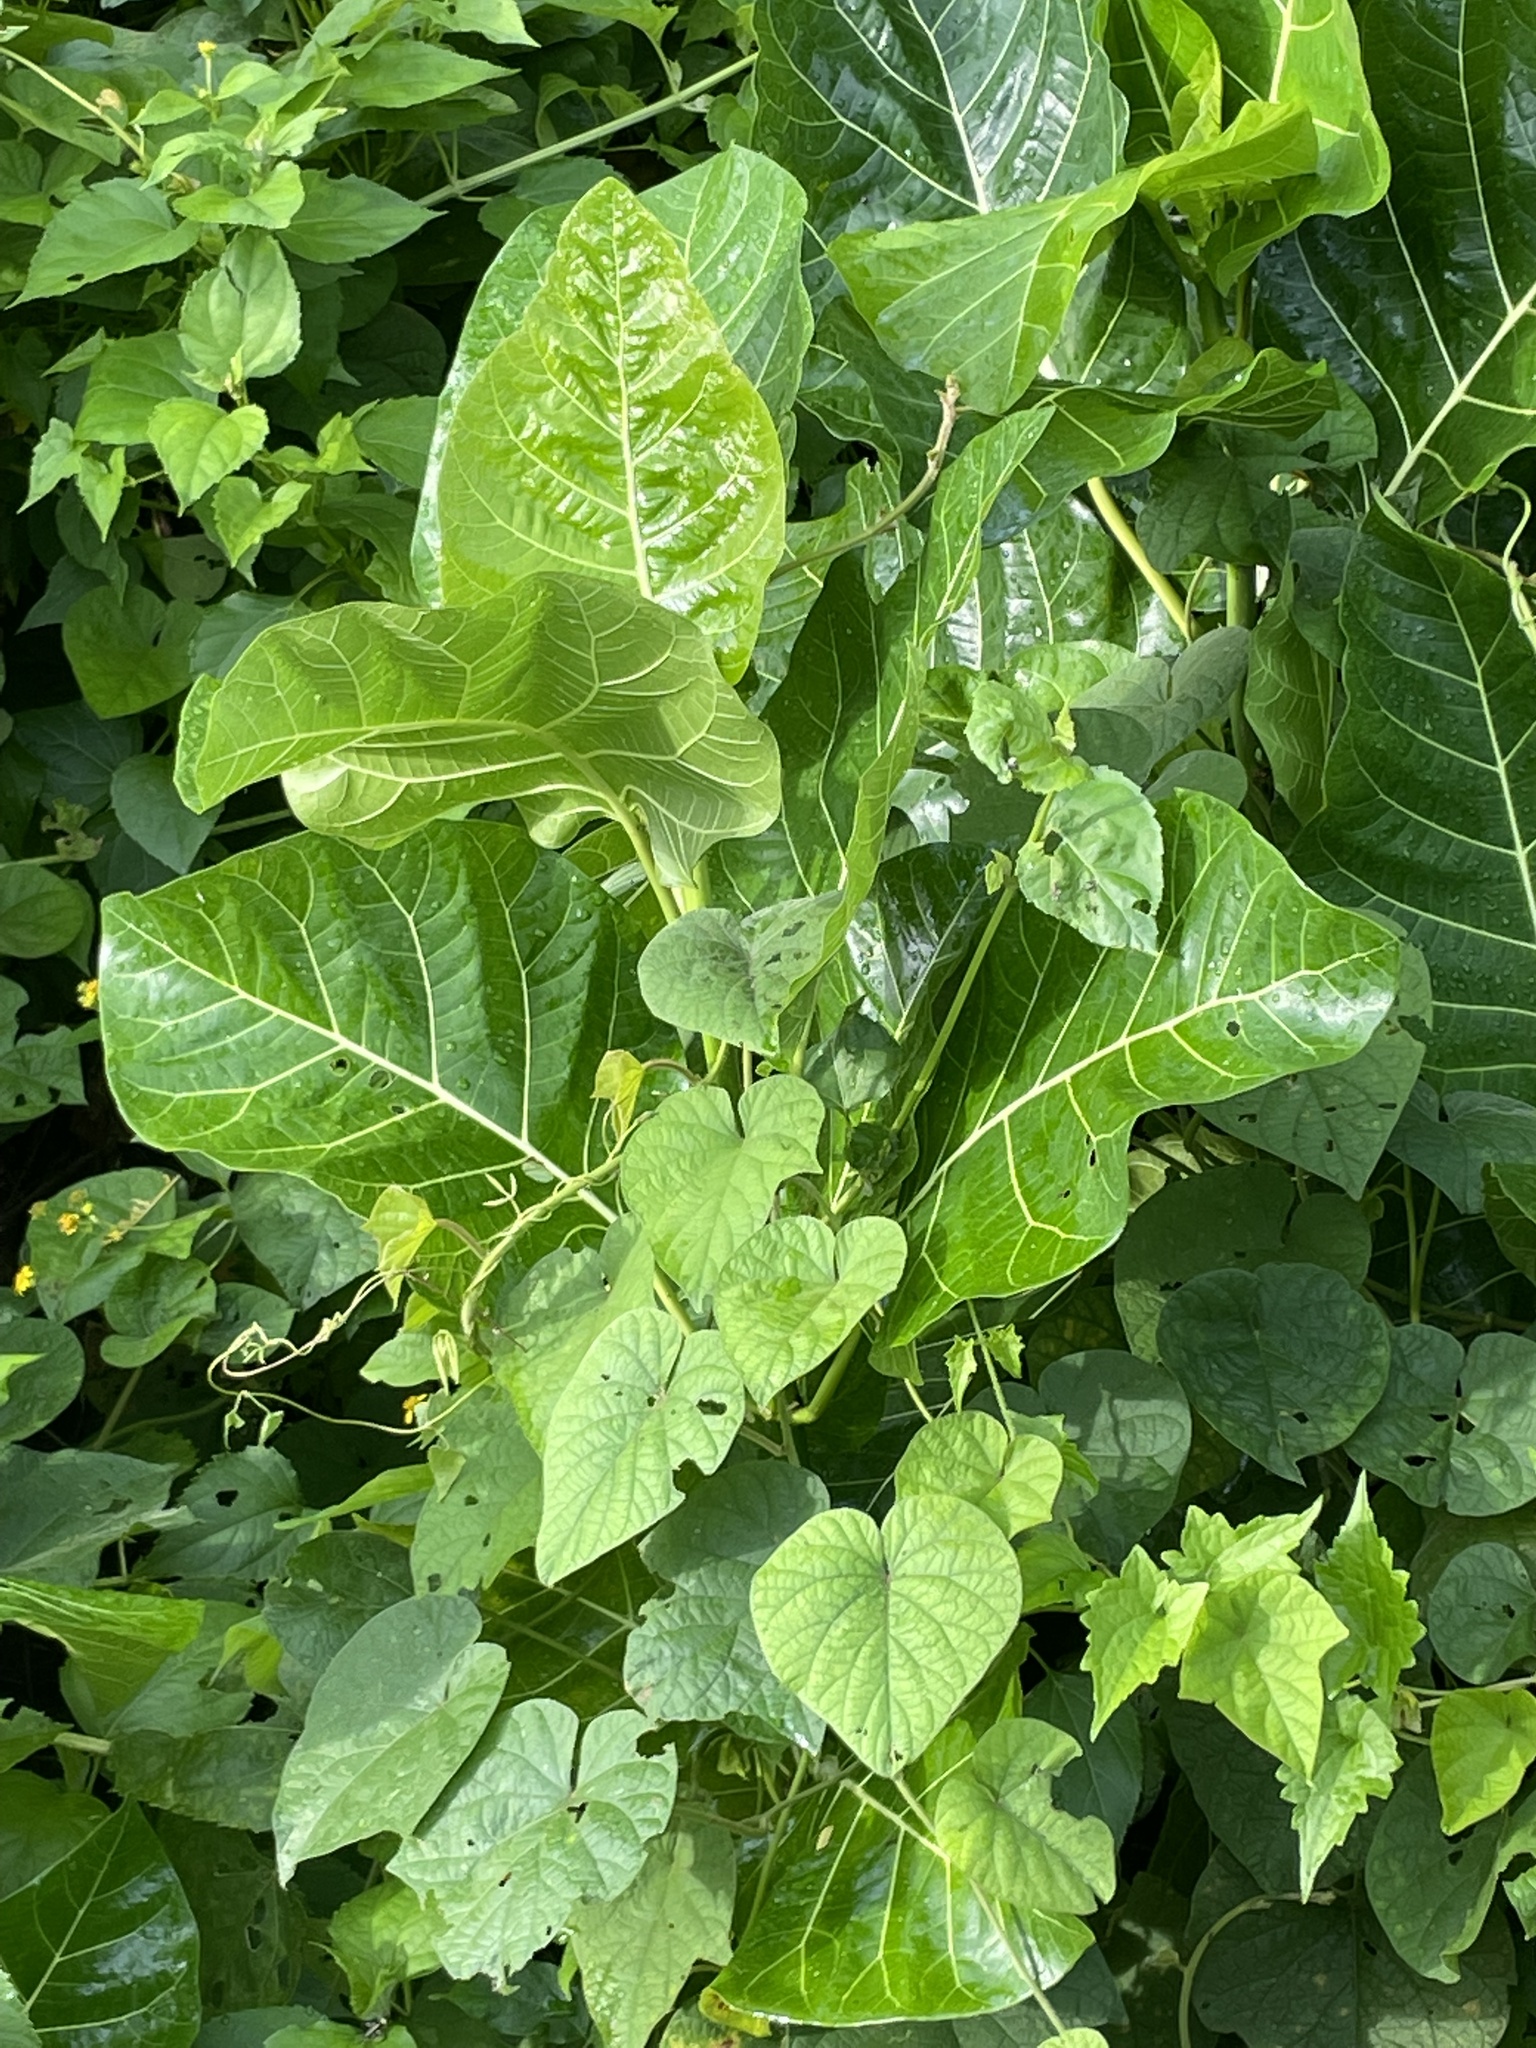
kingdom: Plantae
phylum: Tracheophyta
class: Magnoliopsida
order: Rosales
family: Moraceae
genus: Ficus
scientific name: Ficus septica
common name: Septic fig
